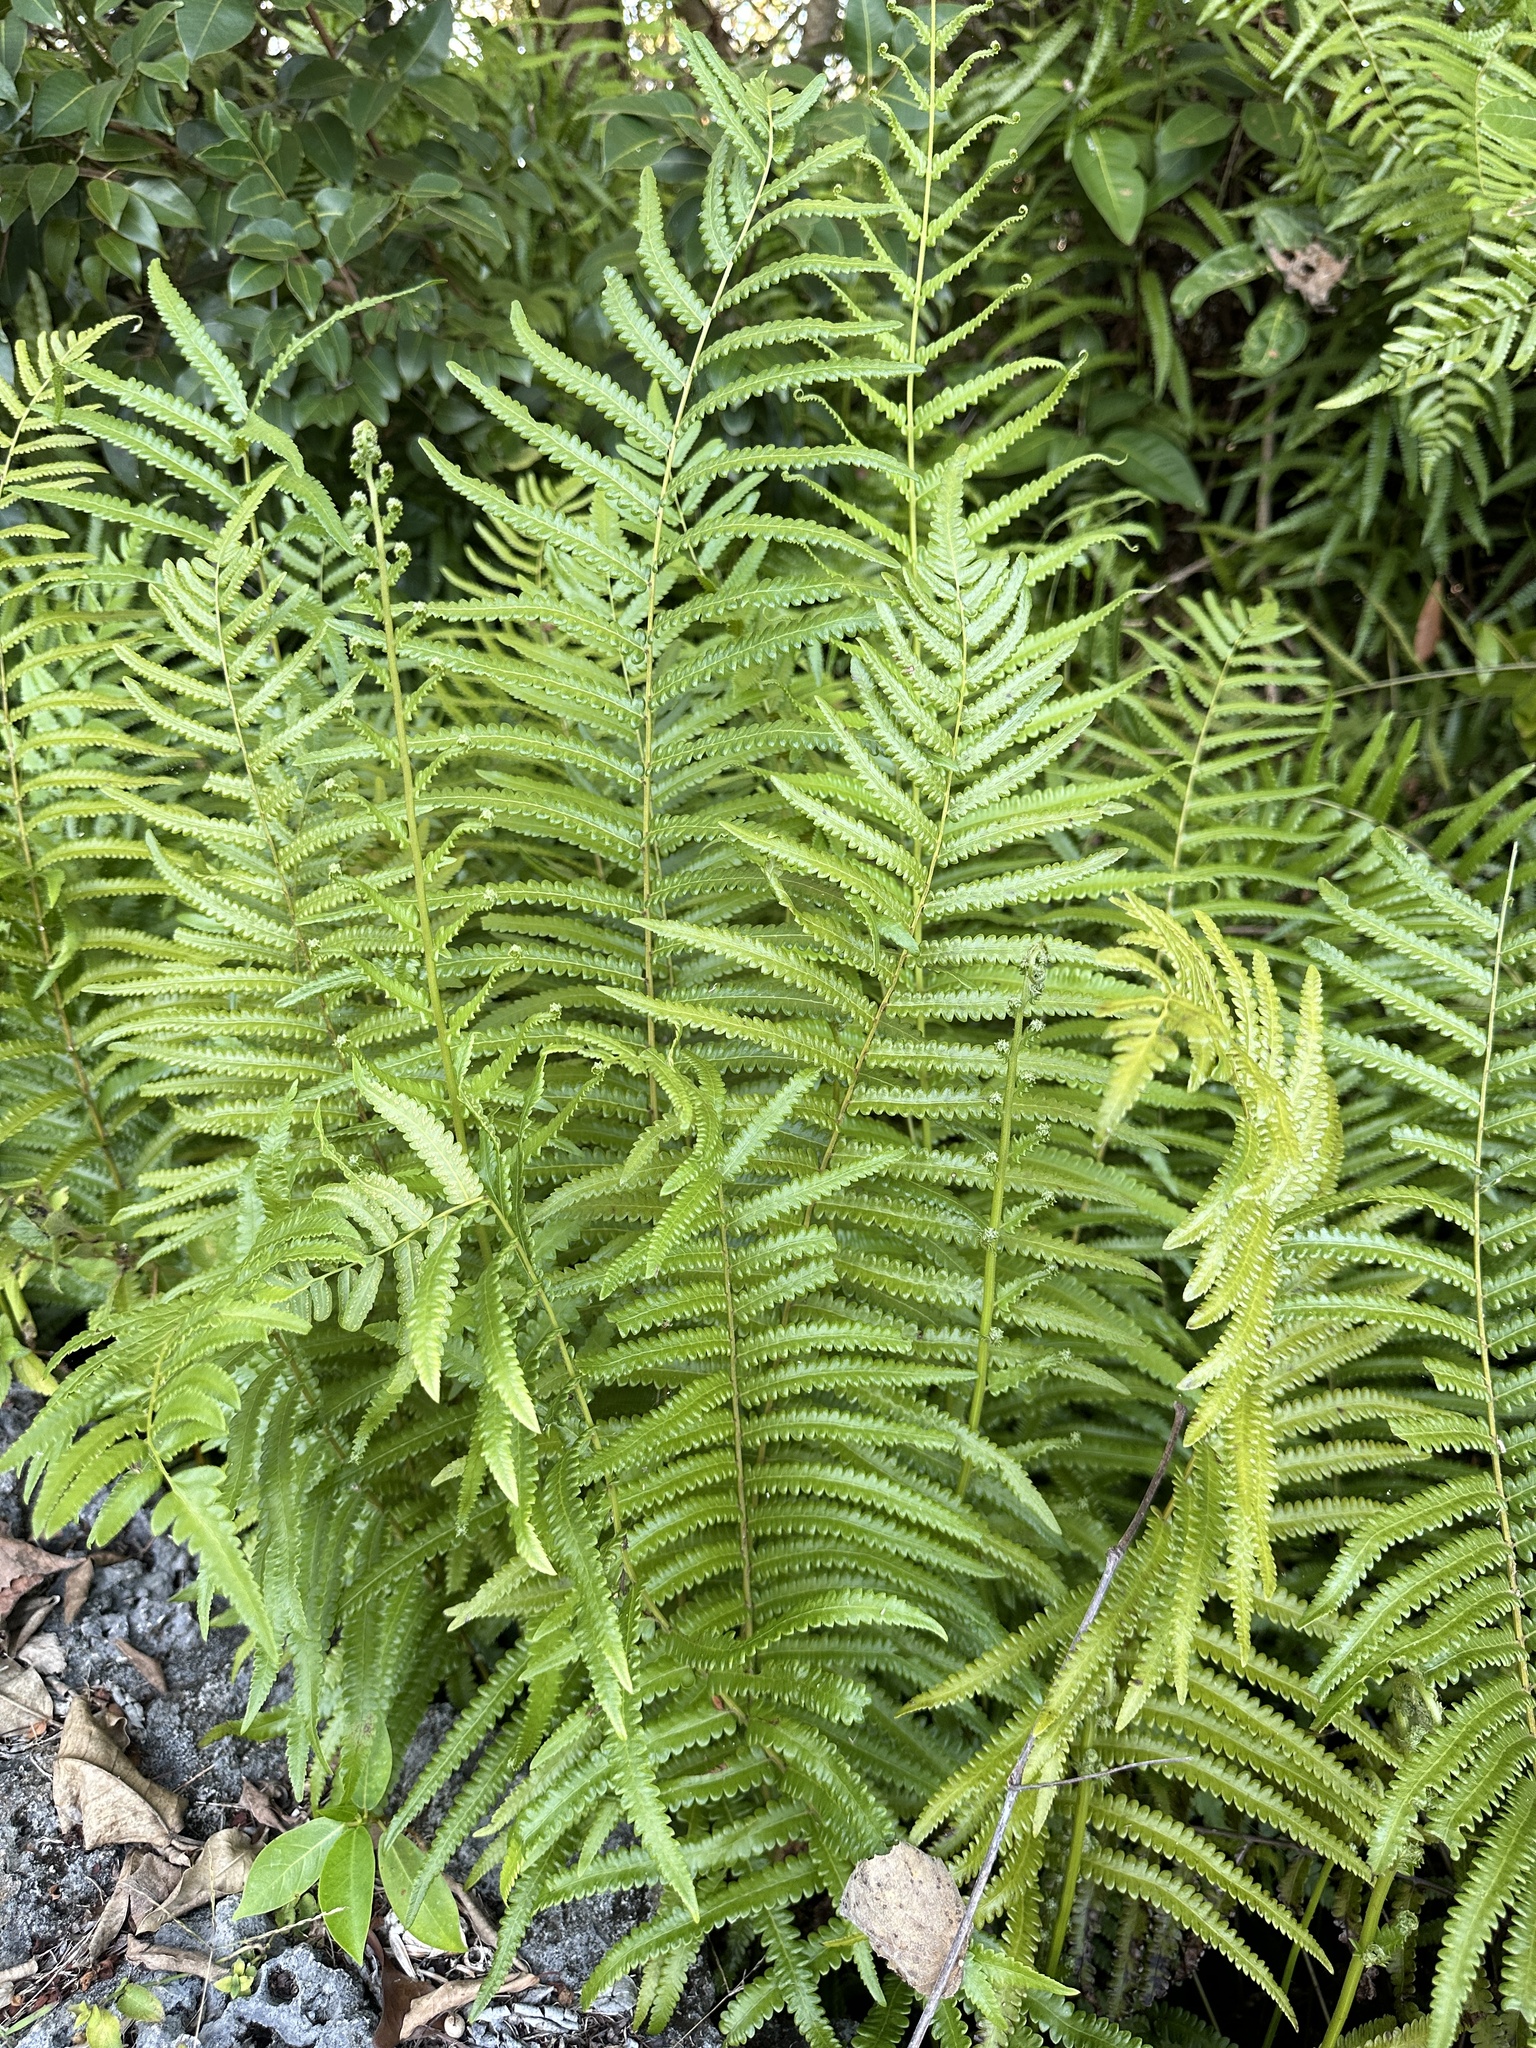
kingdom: Plantae
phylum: Tracheophyta
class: Polypodiopsida
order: Polypodiales
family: Thelypteridaceae
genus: Cyclosorus
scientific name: Cyclosorus interruptus
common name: Neke fern
